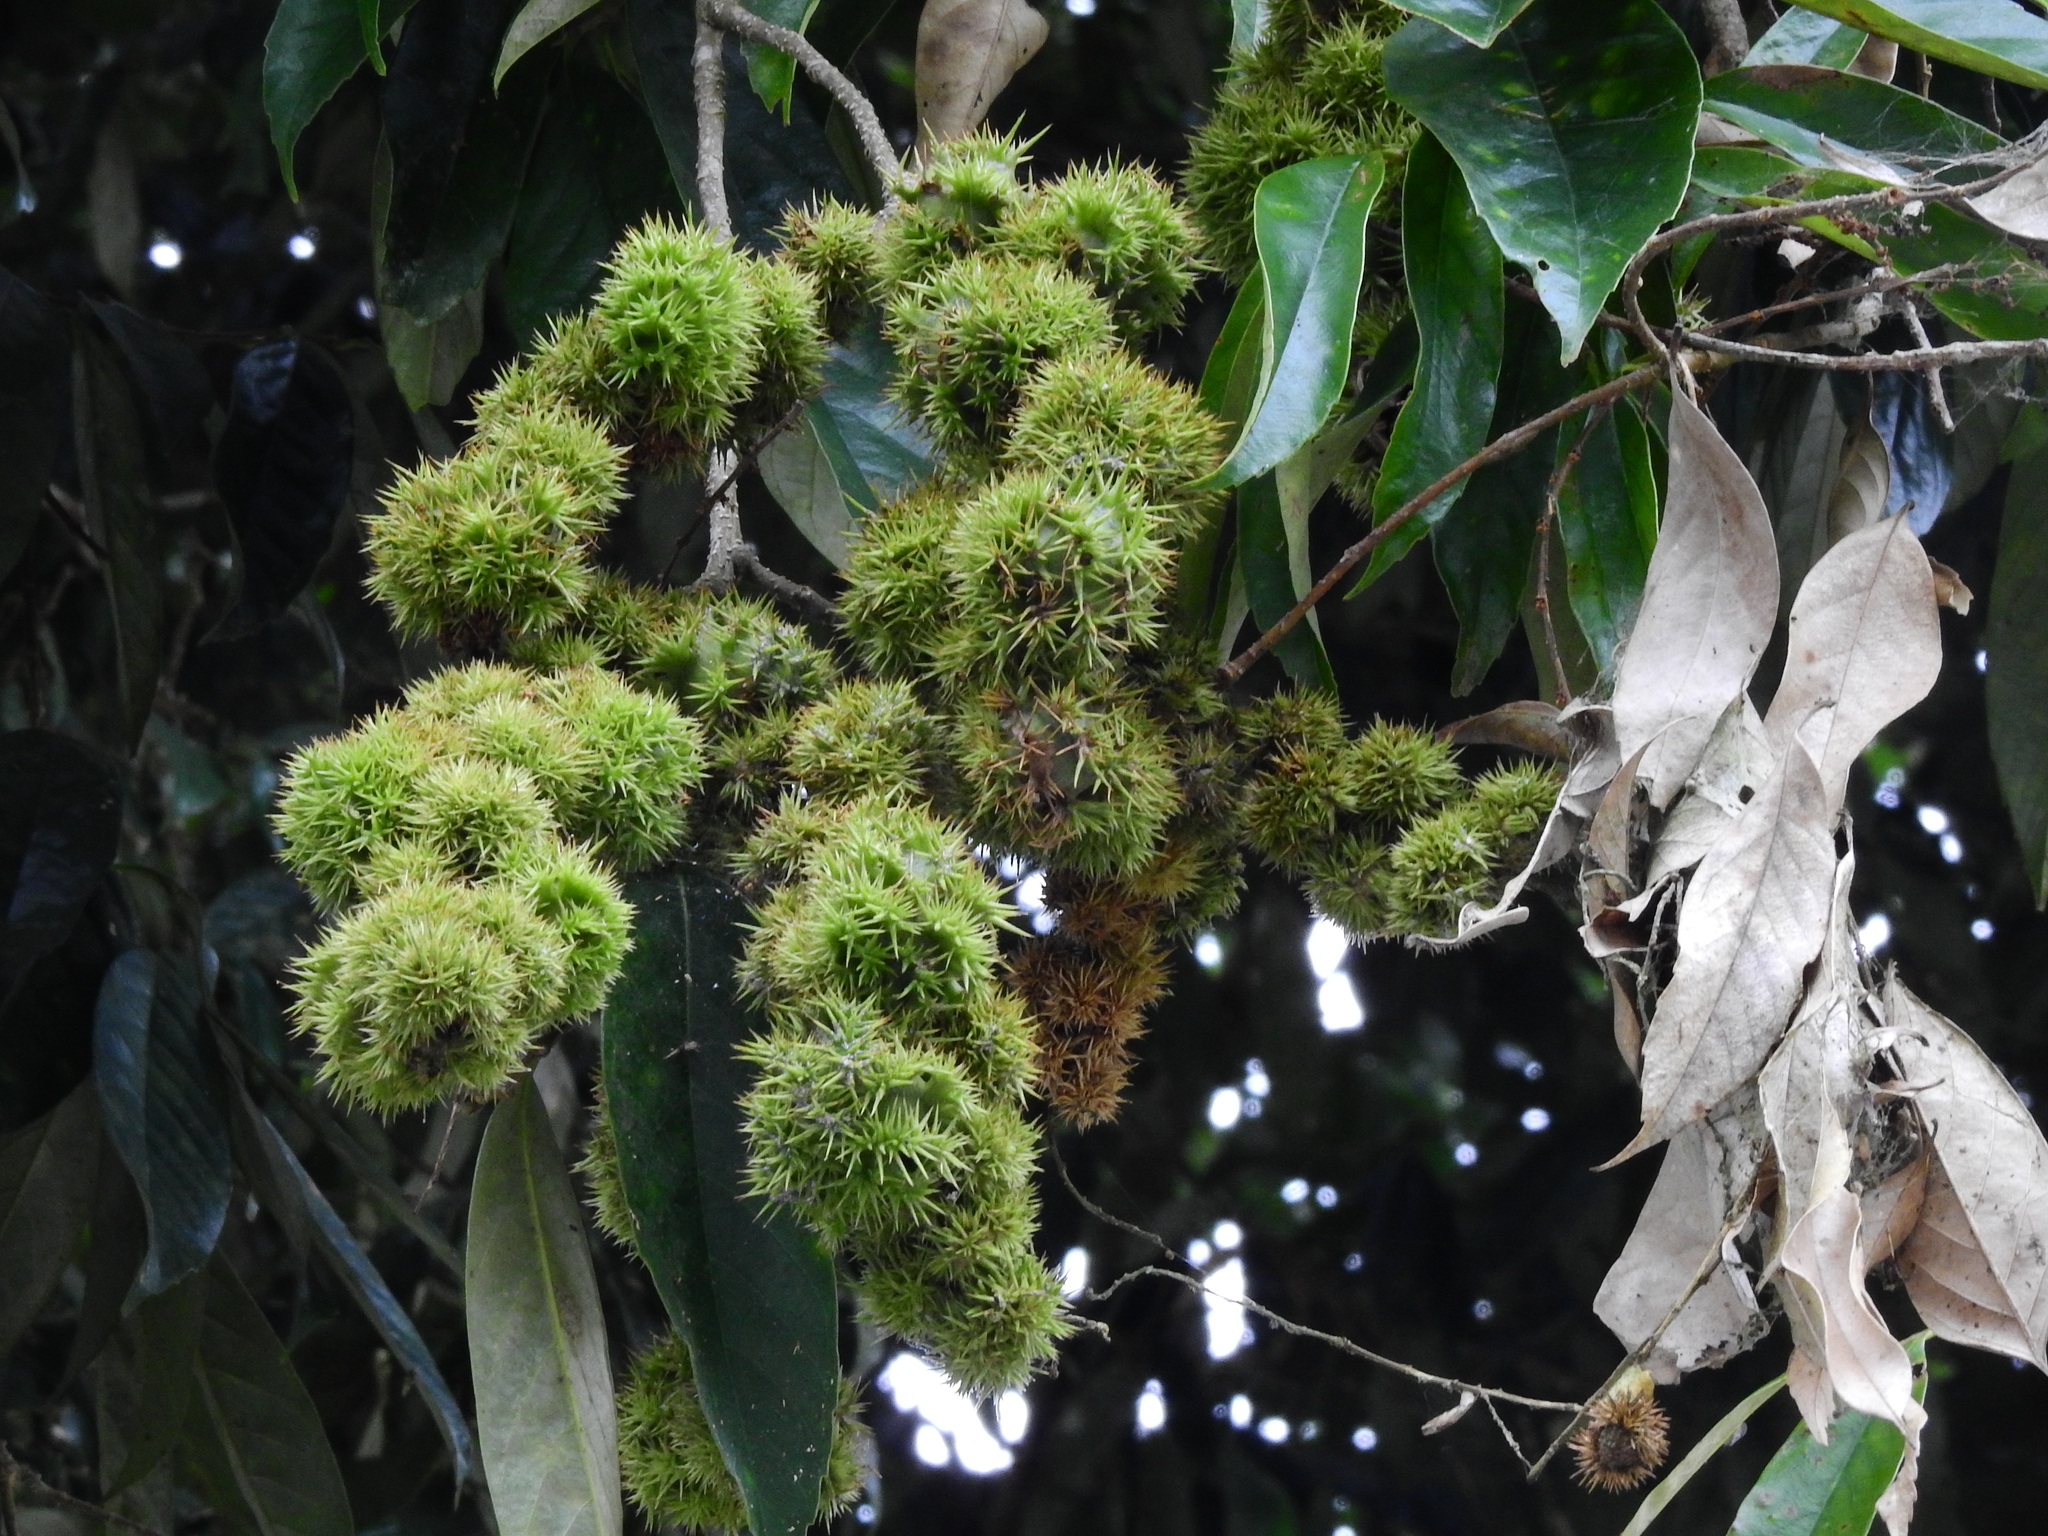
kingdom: Plantae
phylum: Tracheophyta
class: Magnoliopsida
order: Fagales
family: Fagaceae
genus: Castanopsis
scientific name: Castanopsis faberi
